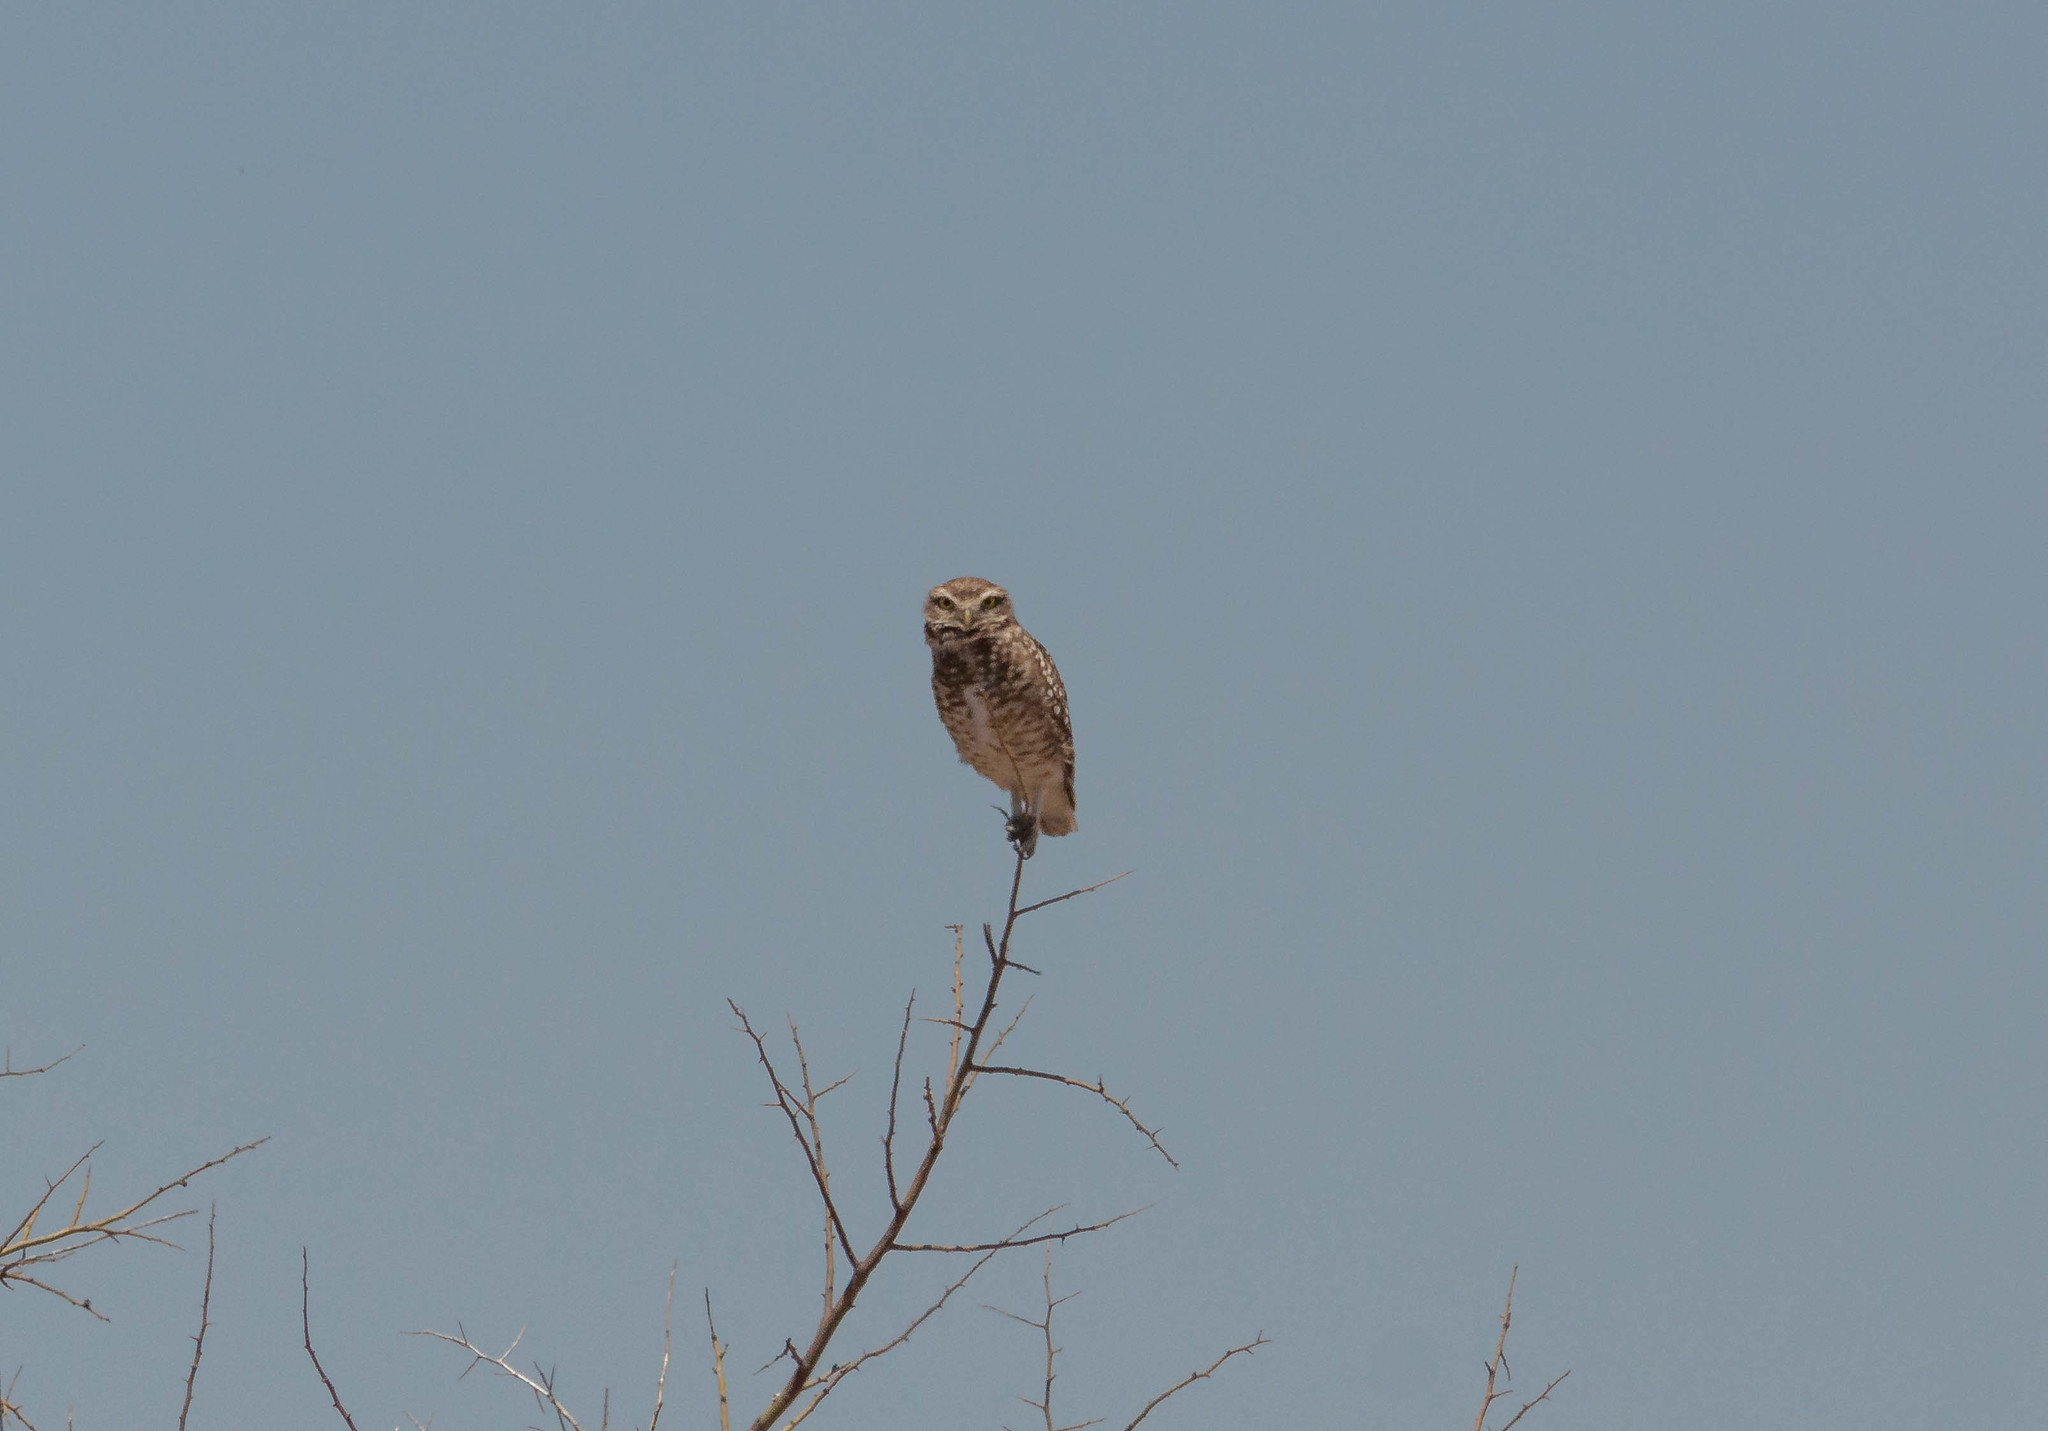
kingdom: Animalia
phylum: Chordata
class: Aves
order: Strigiformes
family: Strigidae
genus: Athene
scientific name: Athene cunicularia
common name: Burrowing owl
